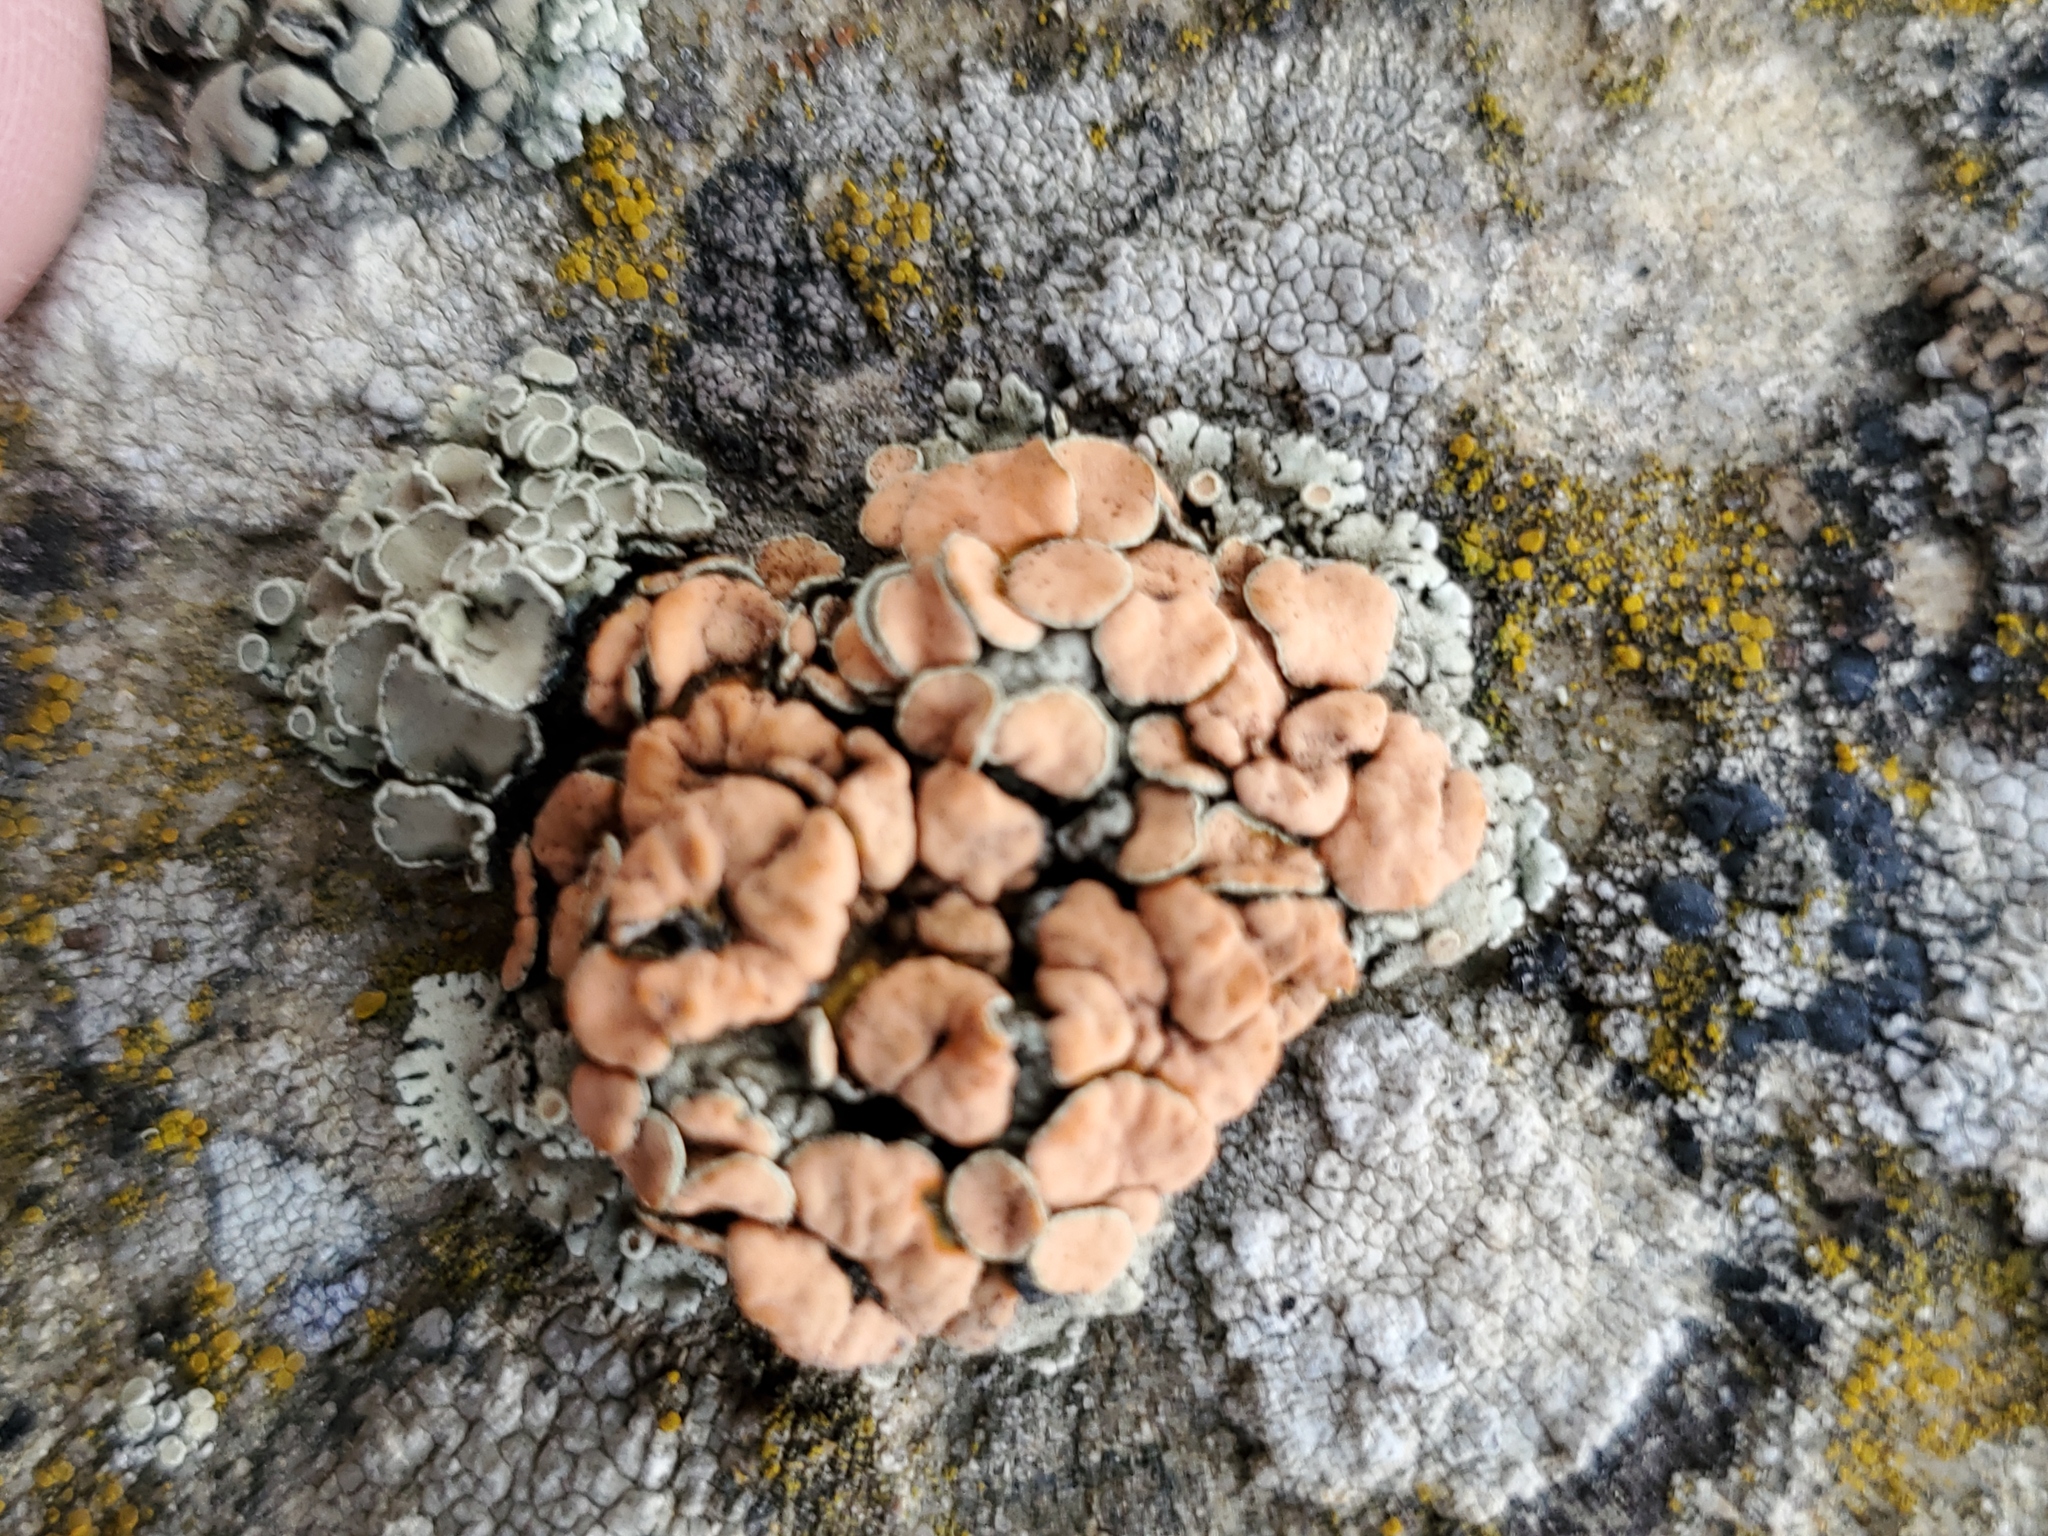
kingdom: Fungi
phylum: Ascomycota
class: Lecanoromycetes
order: Lecanorales
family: Lecanoraceae
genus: Omphalodina
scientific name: Omphalodina chrysoleuca
